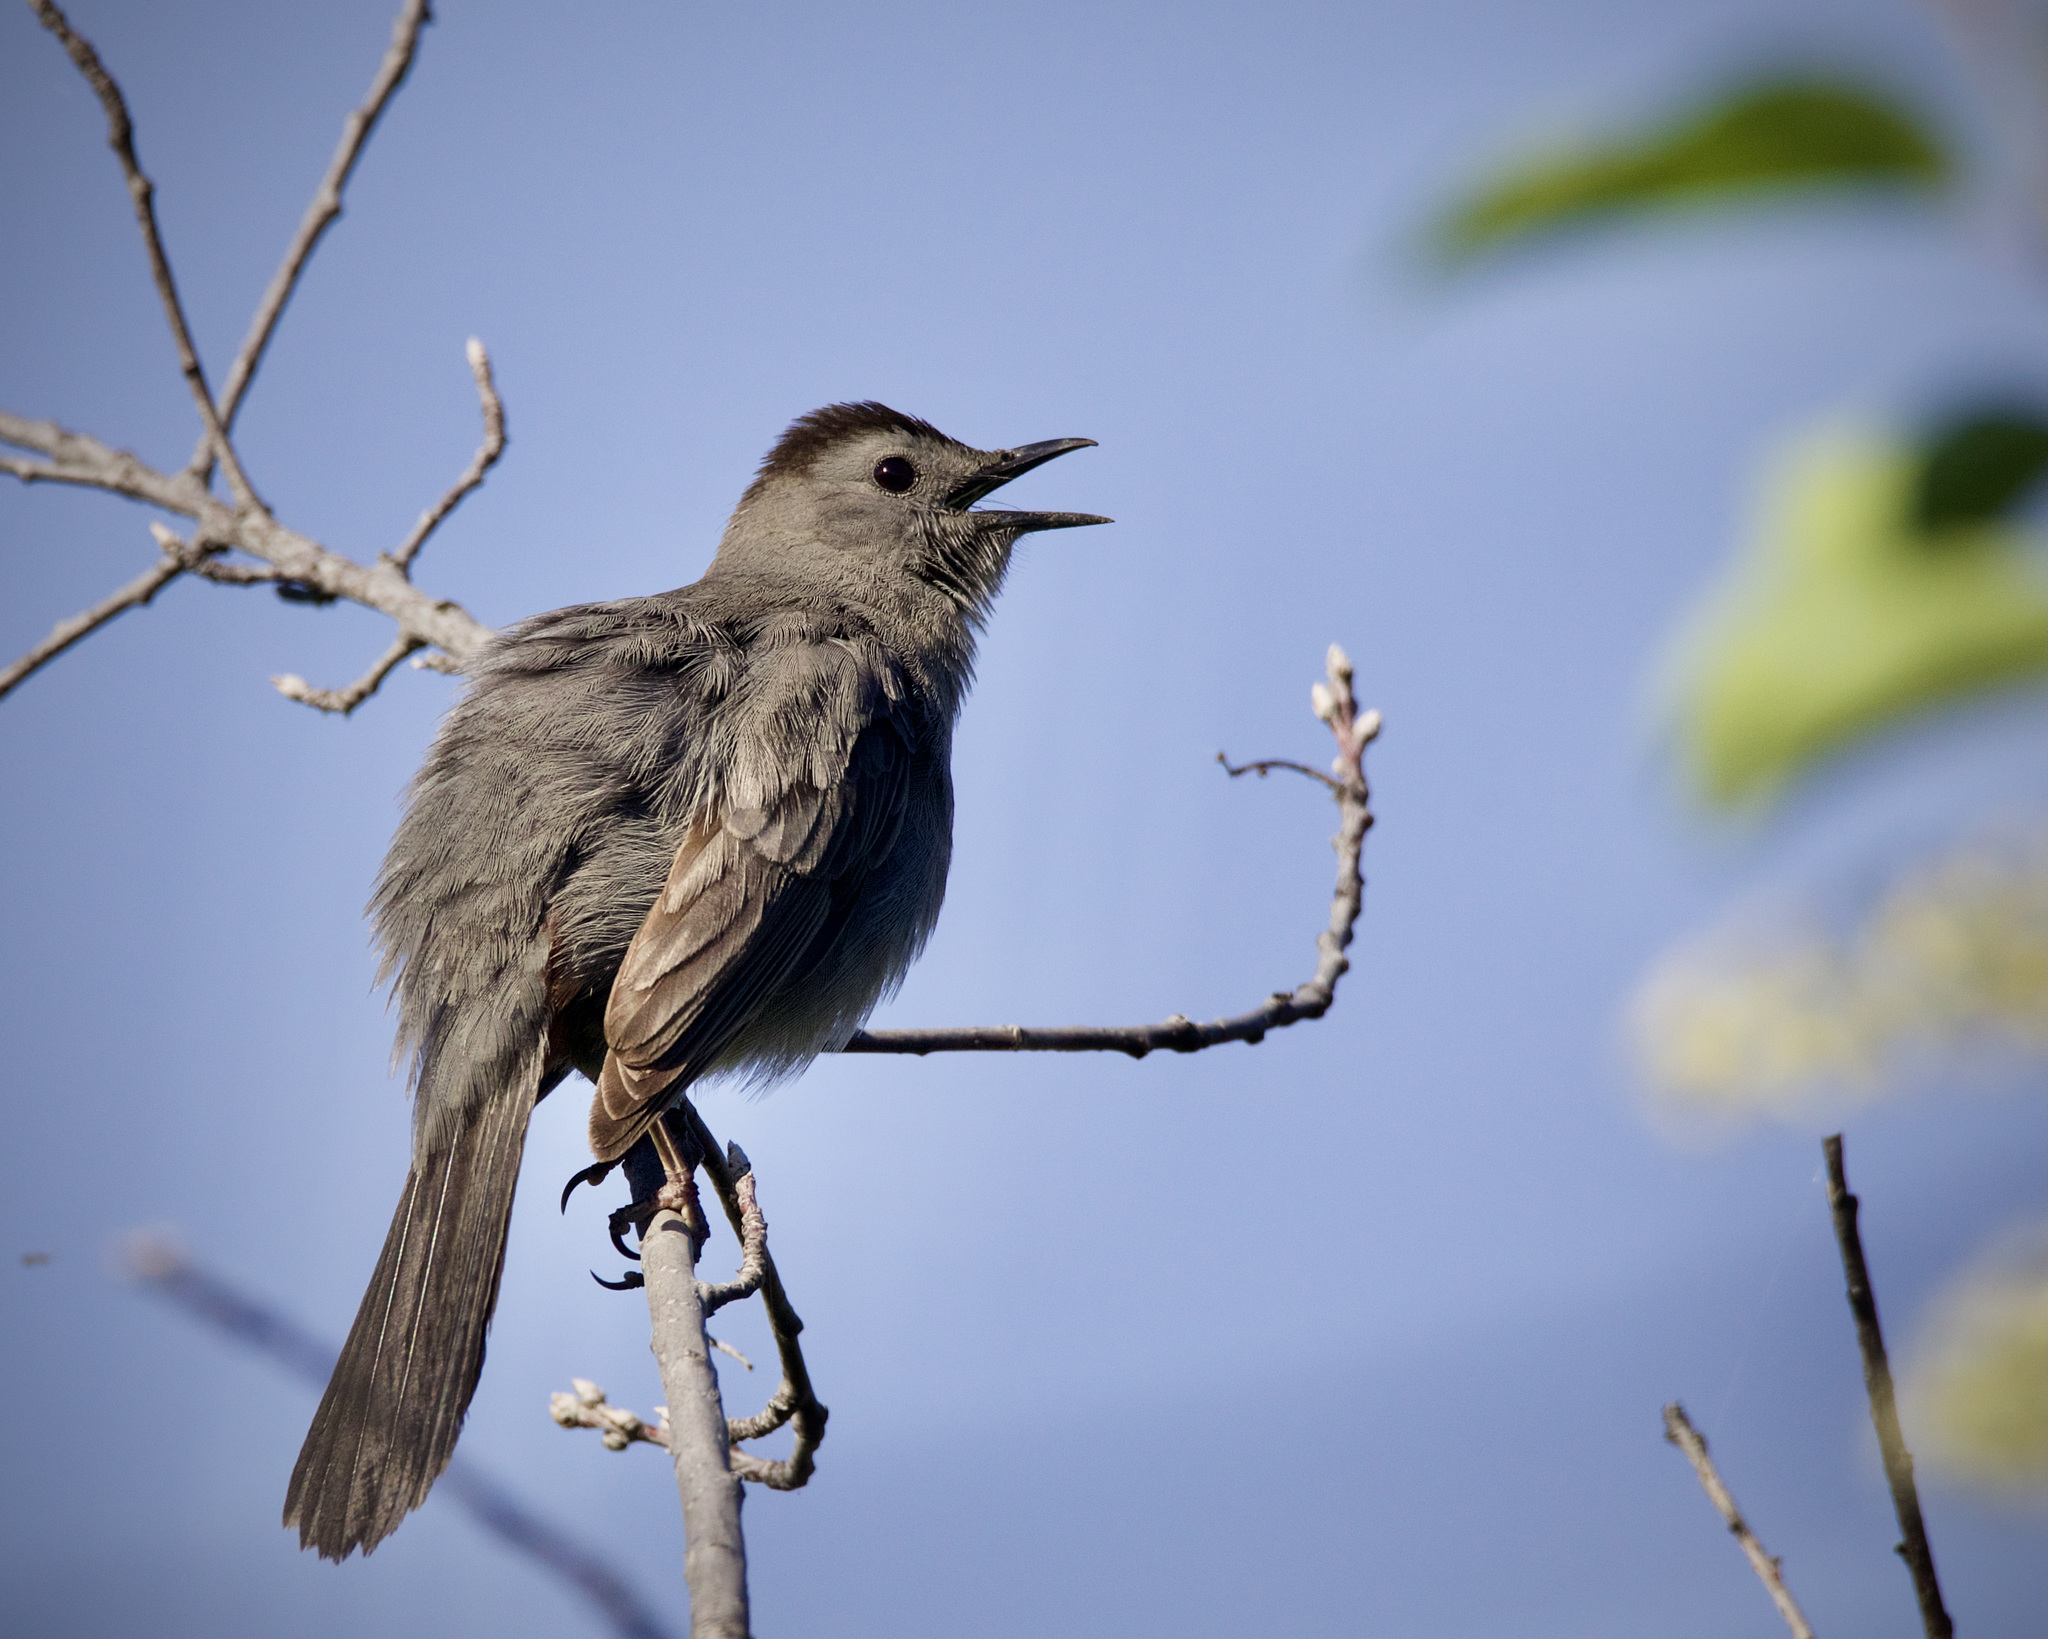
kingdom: Animalia
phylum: Chordata
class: Aves
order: Passeriformes
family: Mimidae
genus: Dumetella
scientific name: Dumetella carolinensis
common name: Gray catbird
